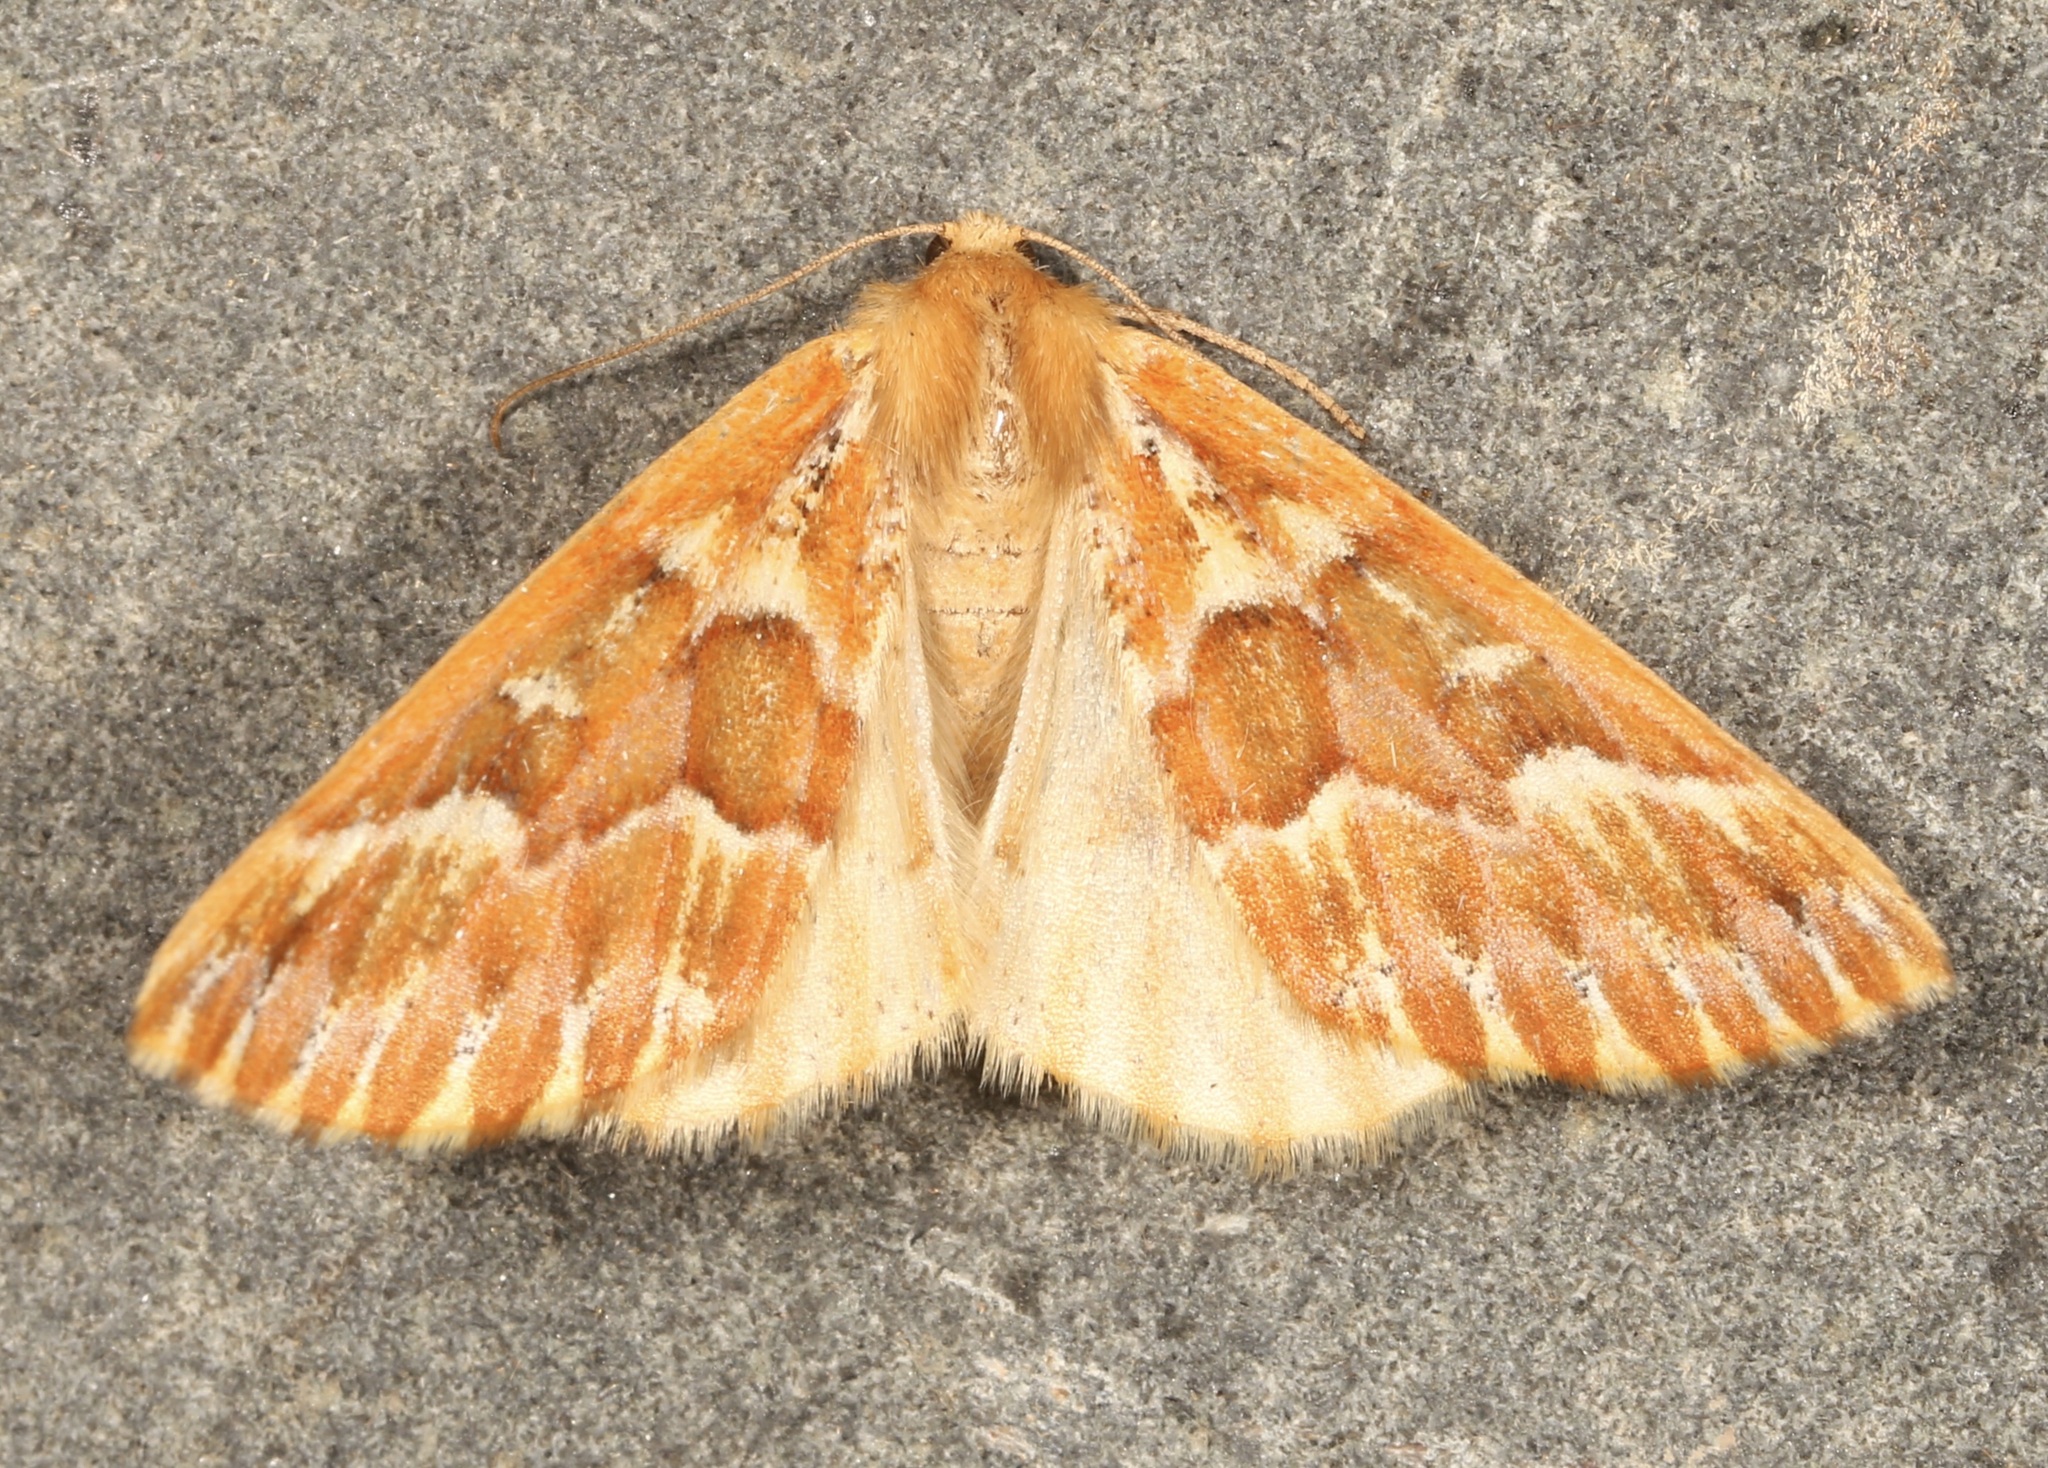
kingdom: Animalia
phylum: Arthropoda
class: Insecta
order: Lepidoptera
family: Geometridae
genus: Caripeta
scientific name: Caripeta aequaliaria
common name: Red girdle moth
